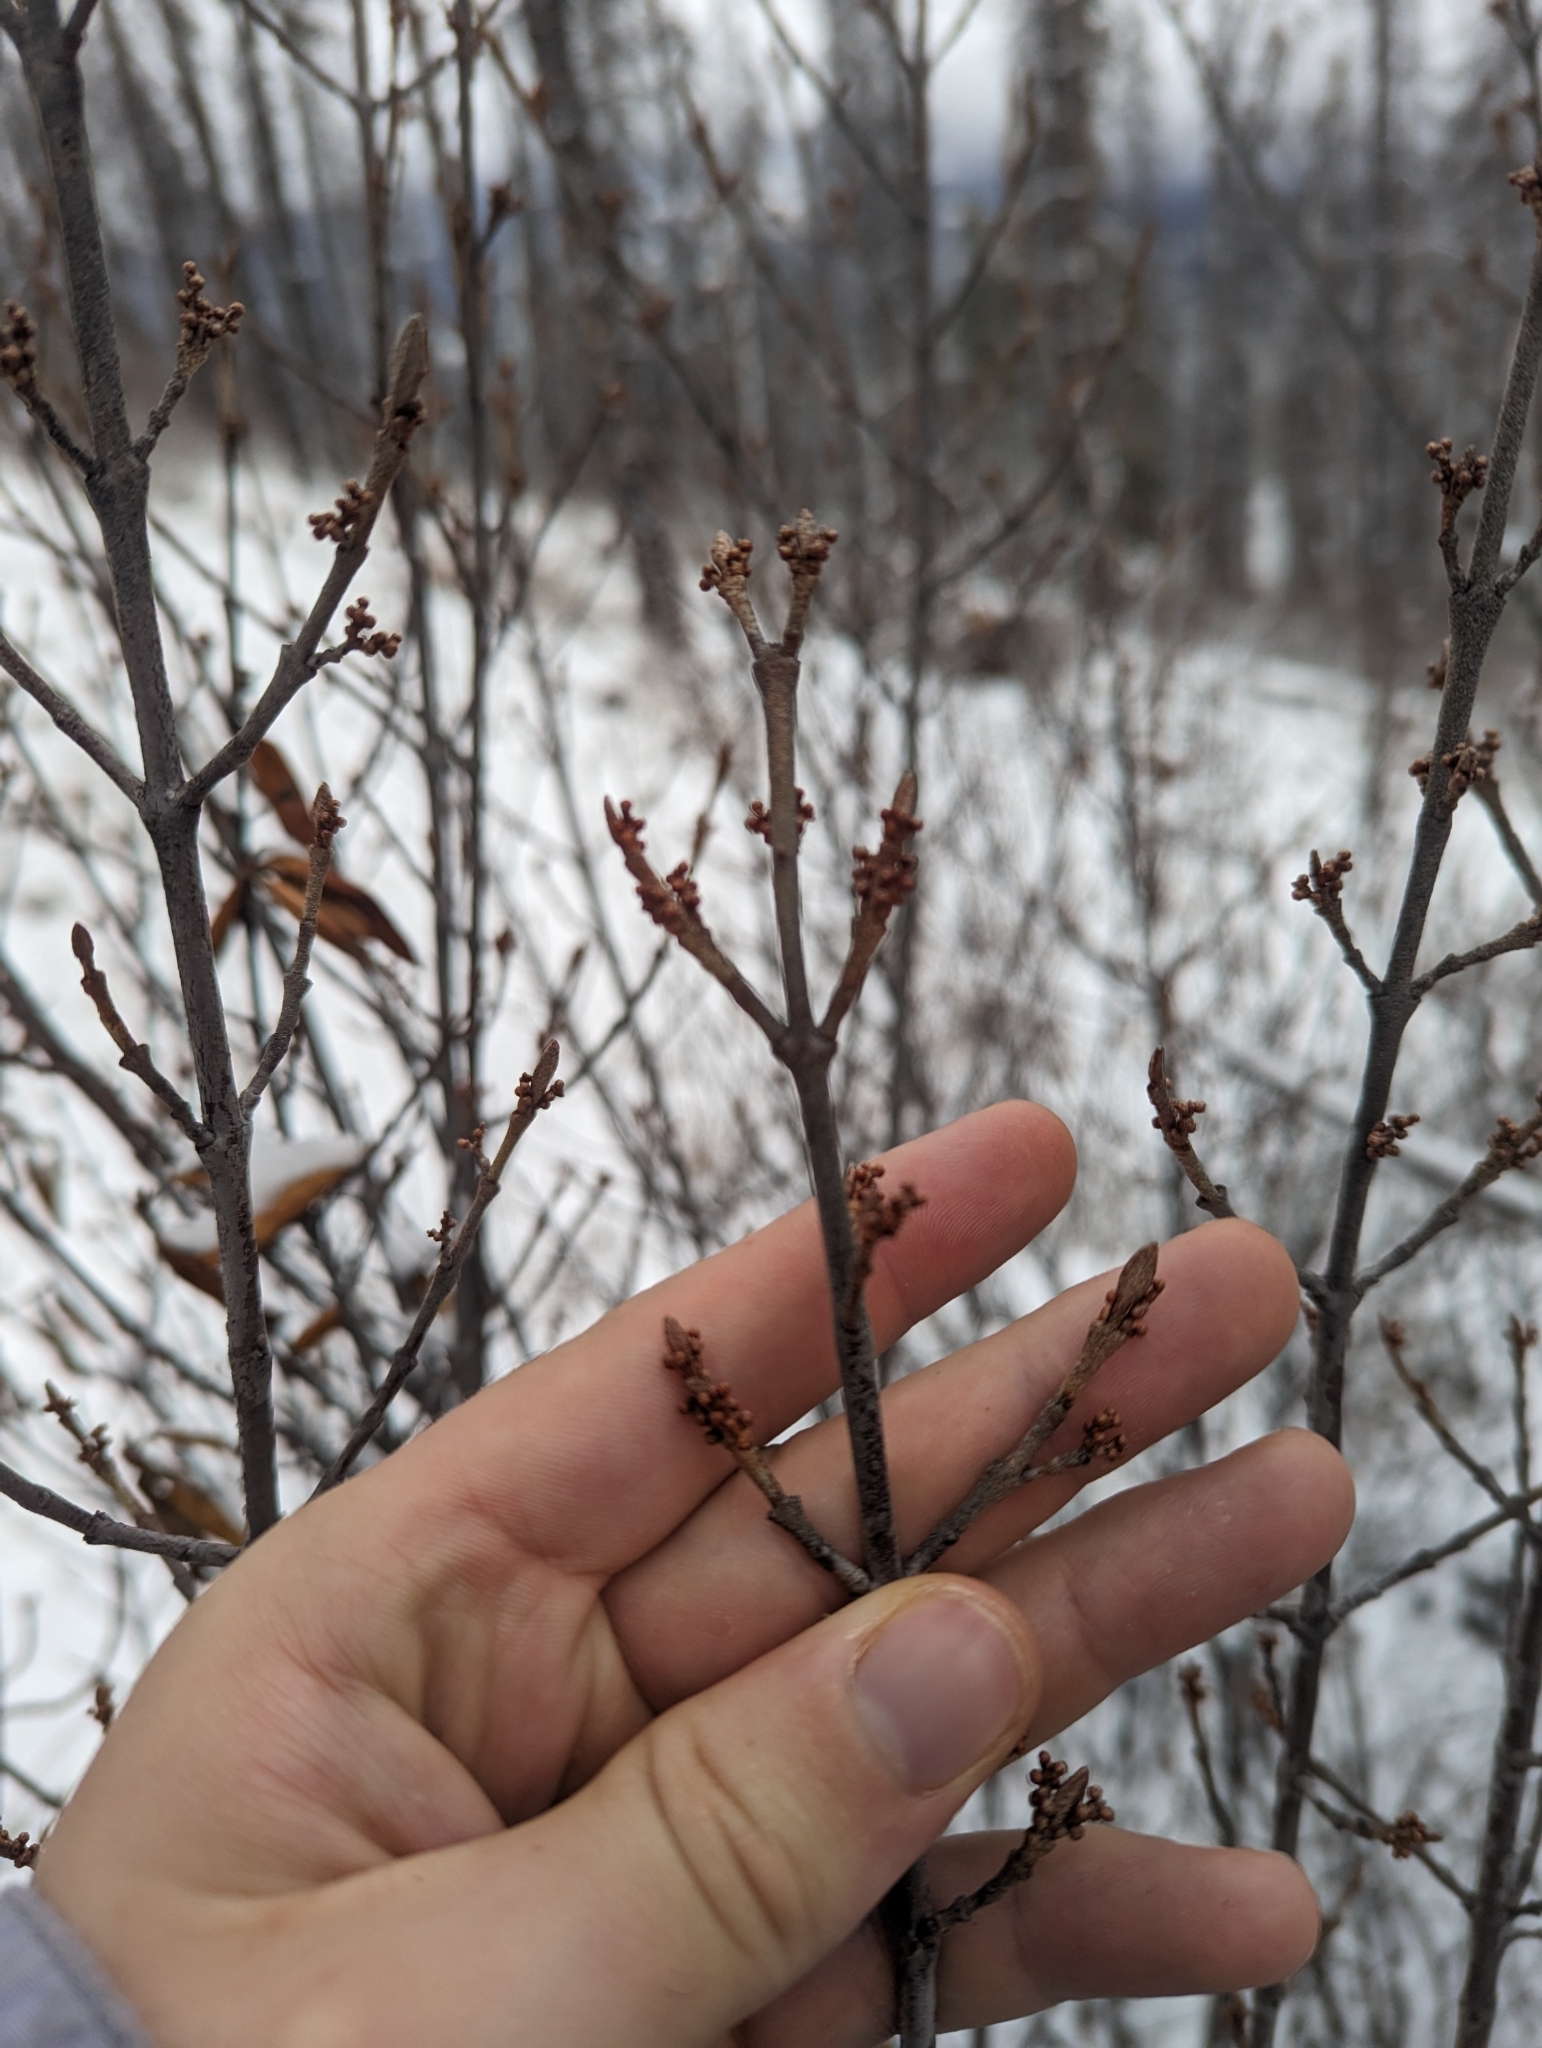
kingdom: Plantae
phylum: Tracheophyta
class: Magnoliopsida
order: Rosales
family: Elaeagnaceae
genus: Shepherdia
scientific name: Shepherdia canadensis
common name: Soapberry
